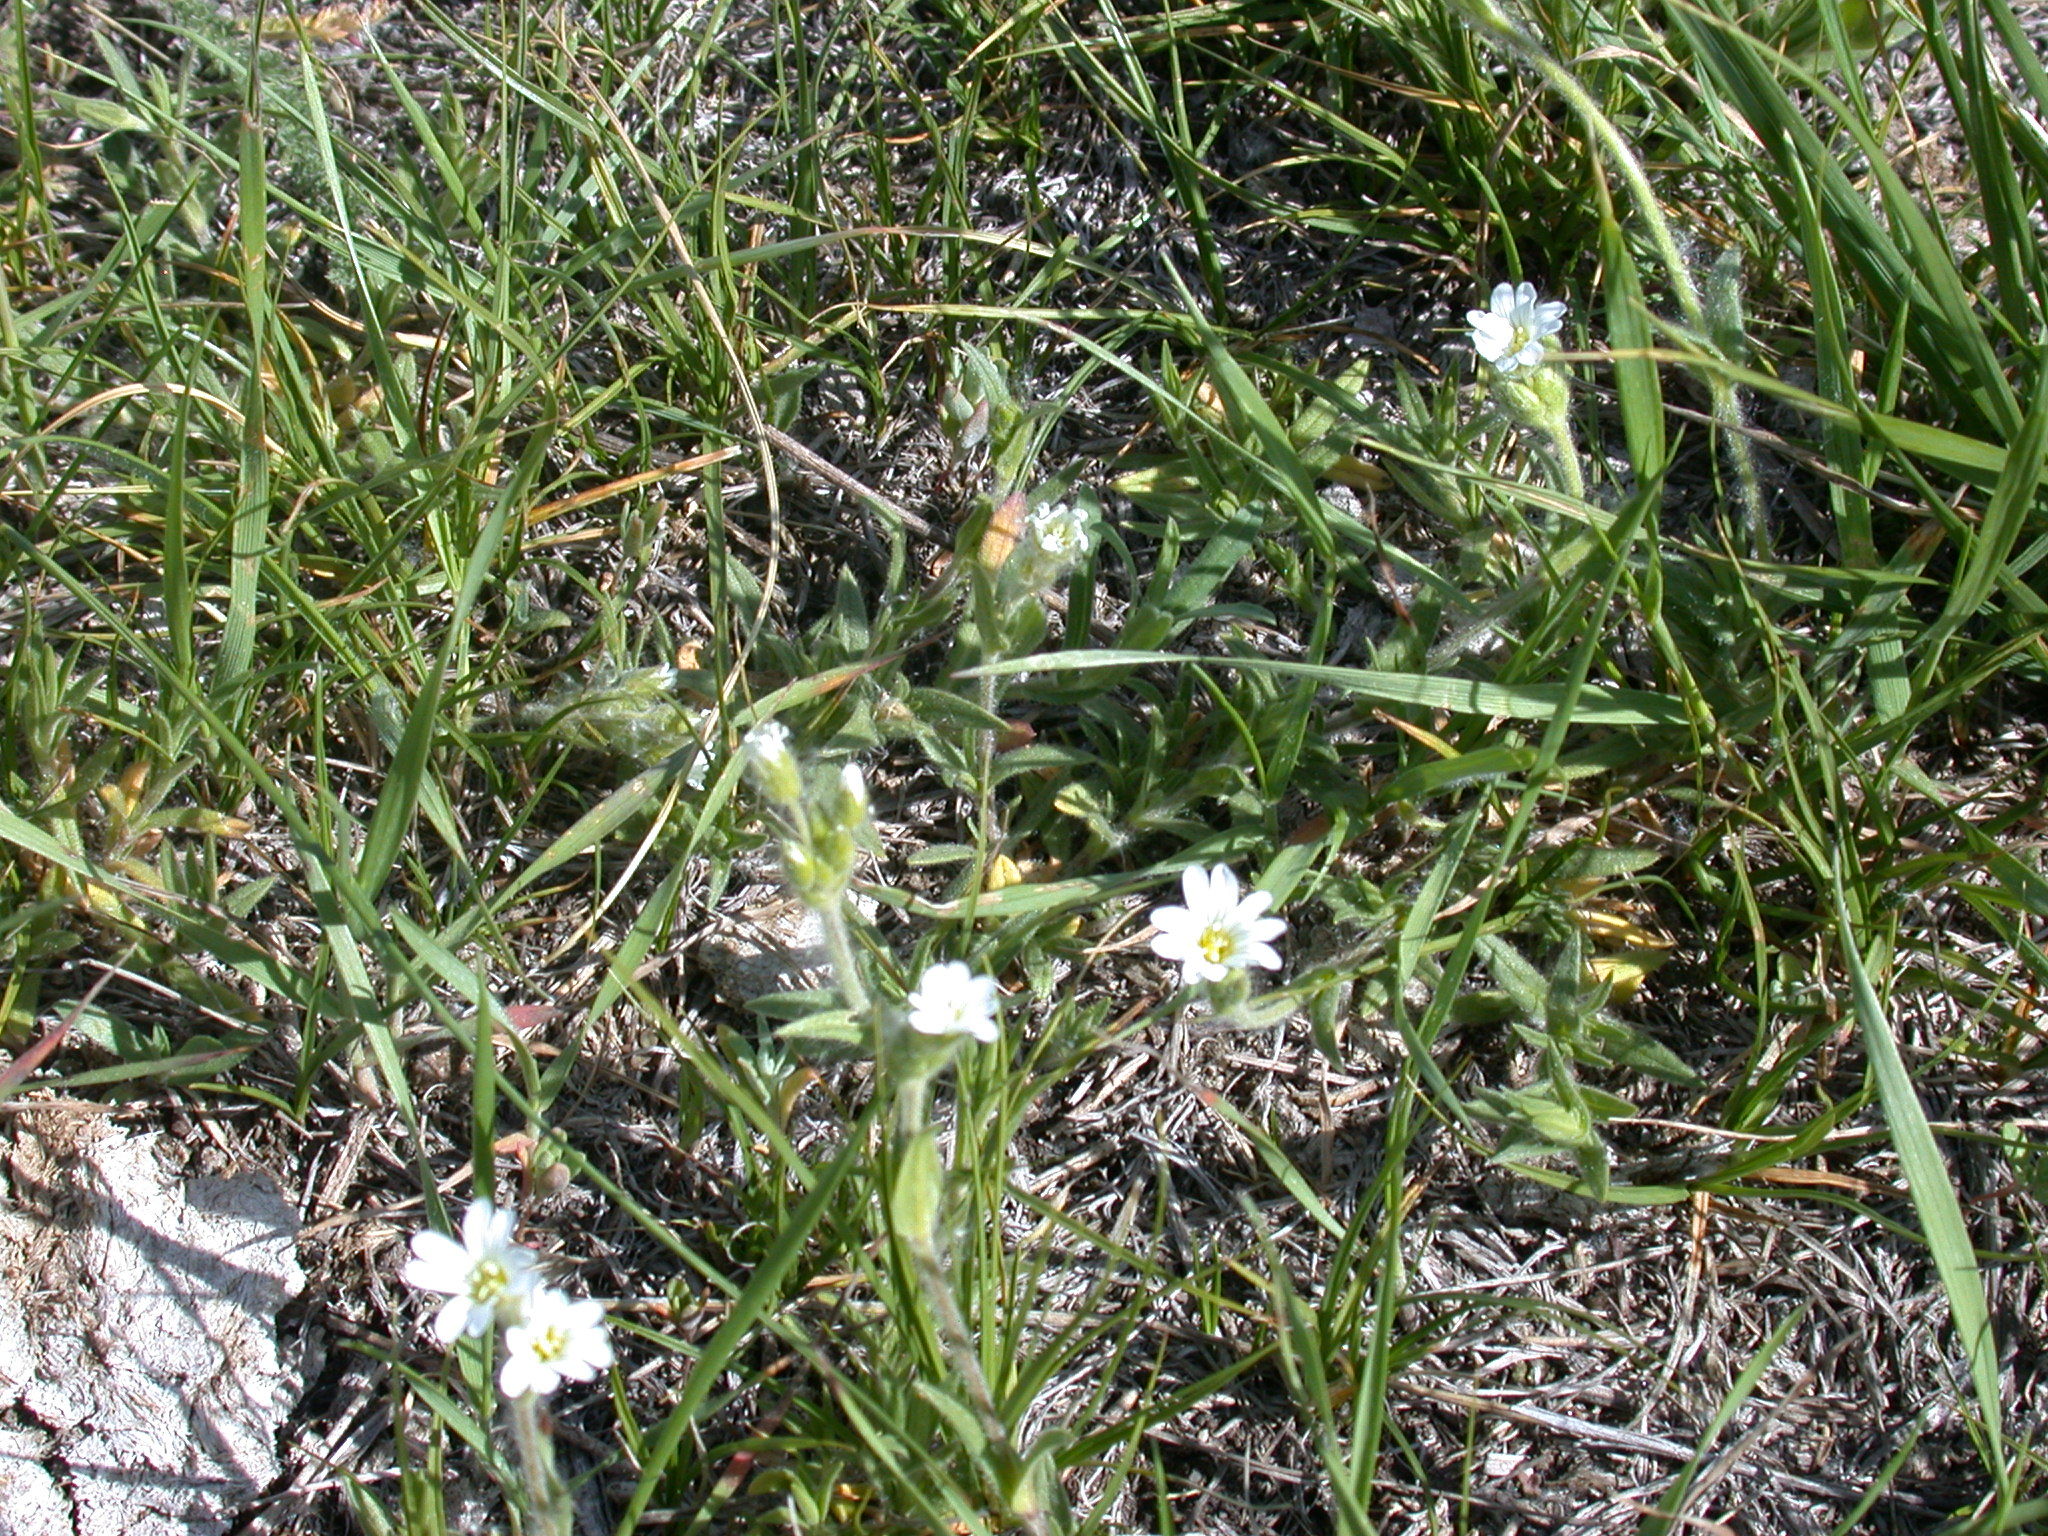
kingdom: Plantae
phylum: Tracheophyta
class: Magnoliopsida
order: Caryophyllales
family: Caryophyllaceae
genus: Cerastium
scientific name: Cerastium arvense
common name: Field mouse-ear
